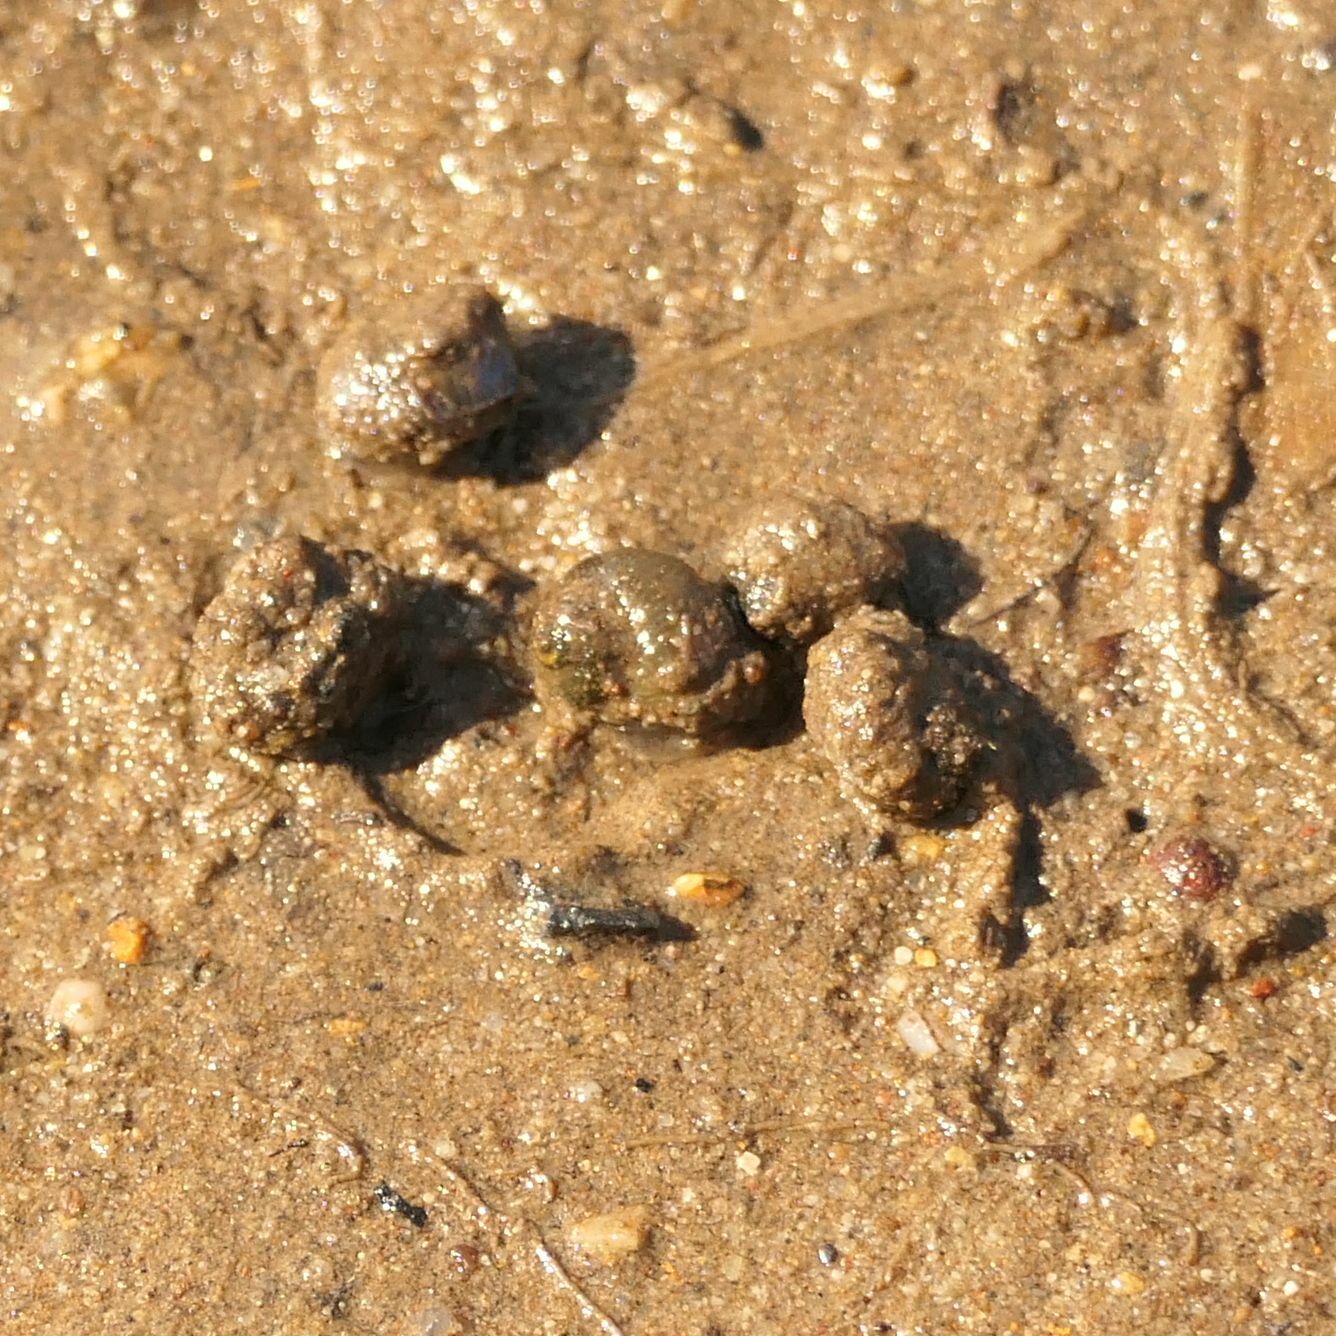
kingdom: Animalia
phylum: Mollusca
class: Gastropoda
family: Amphibolidae
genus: Salinator
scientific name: Salinator tectus
